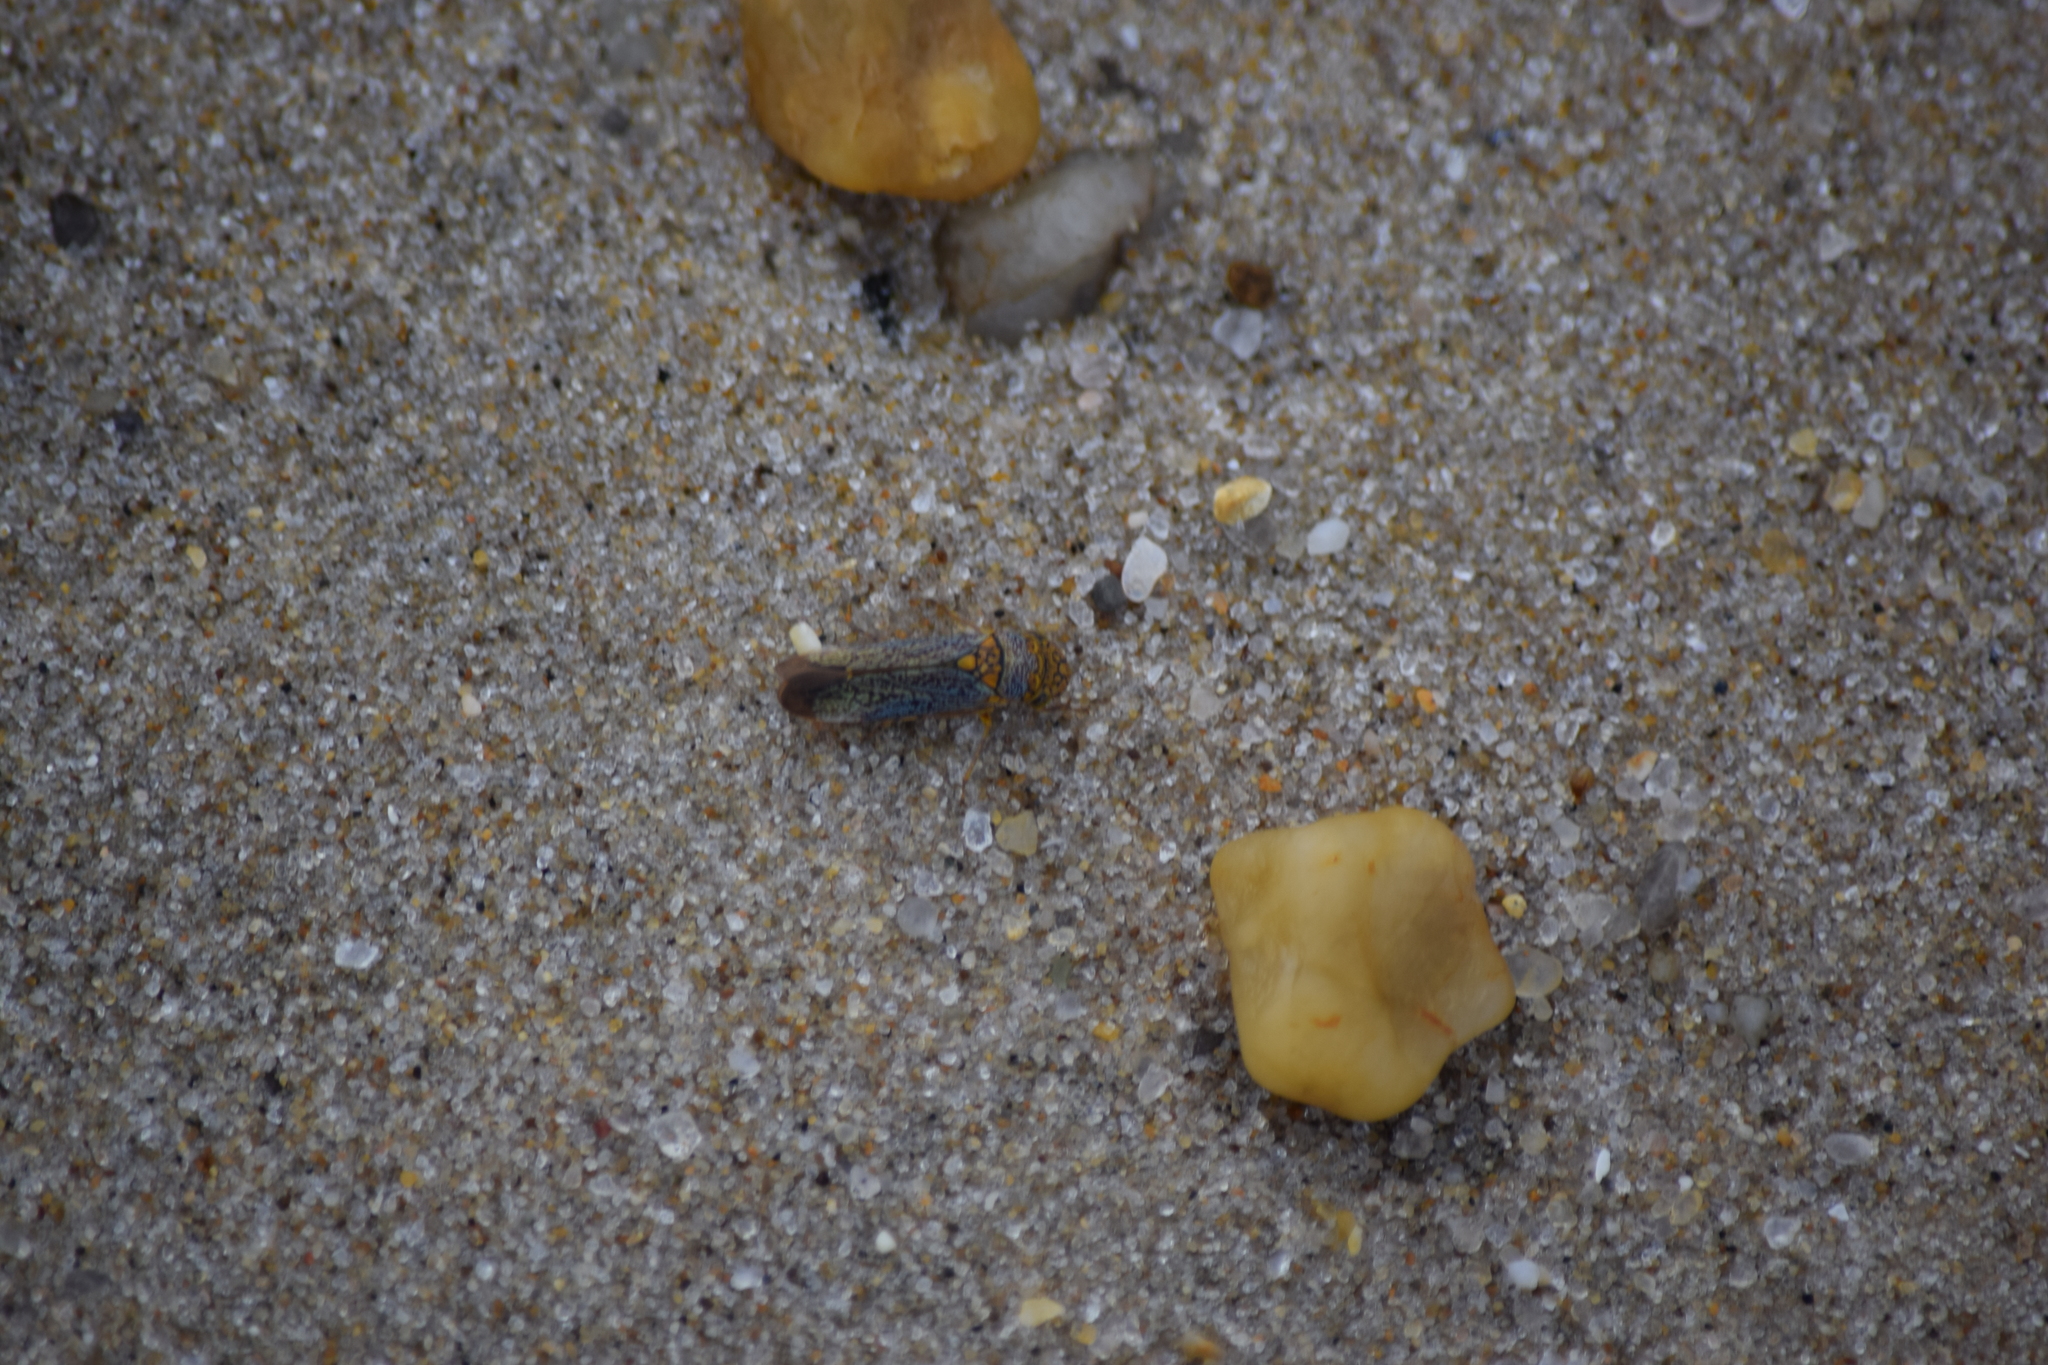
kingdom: Animalia
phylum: Arthropoda
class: Insecta
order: Hemiptera
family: Cicadellidae
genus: Oncometopia
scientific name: Oncometopia orbona
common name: Broad-headed sharpshooter
